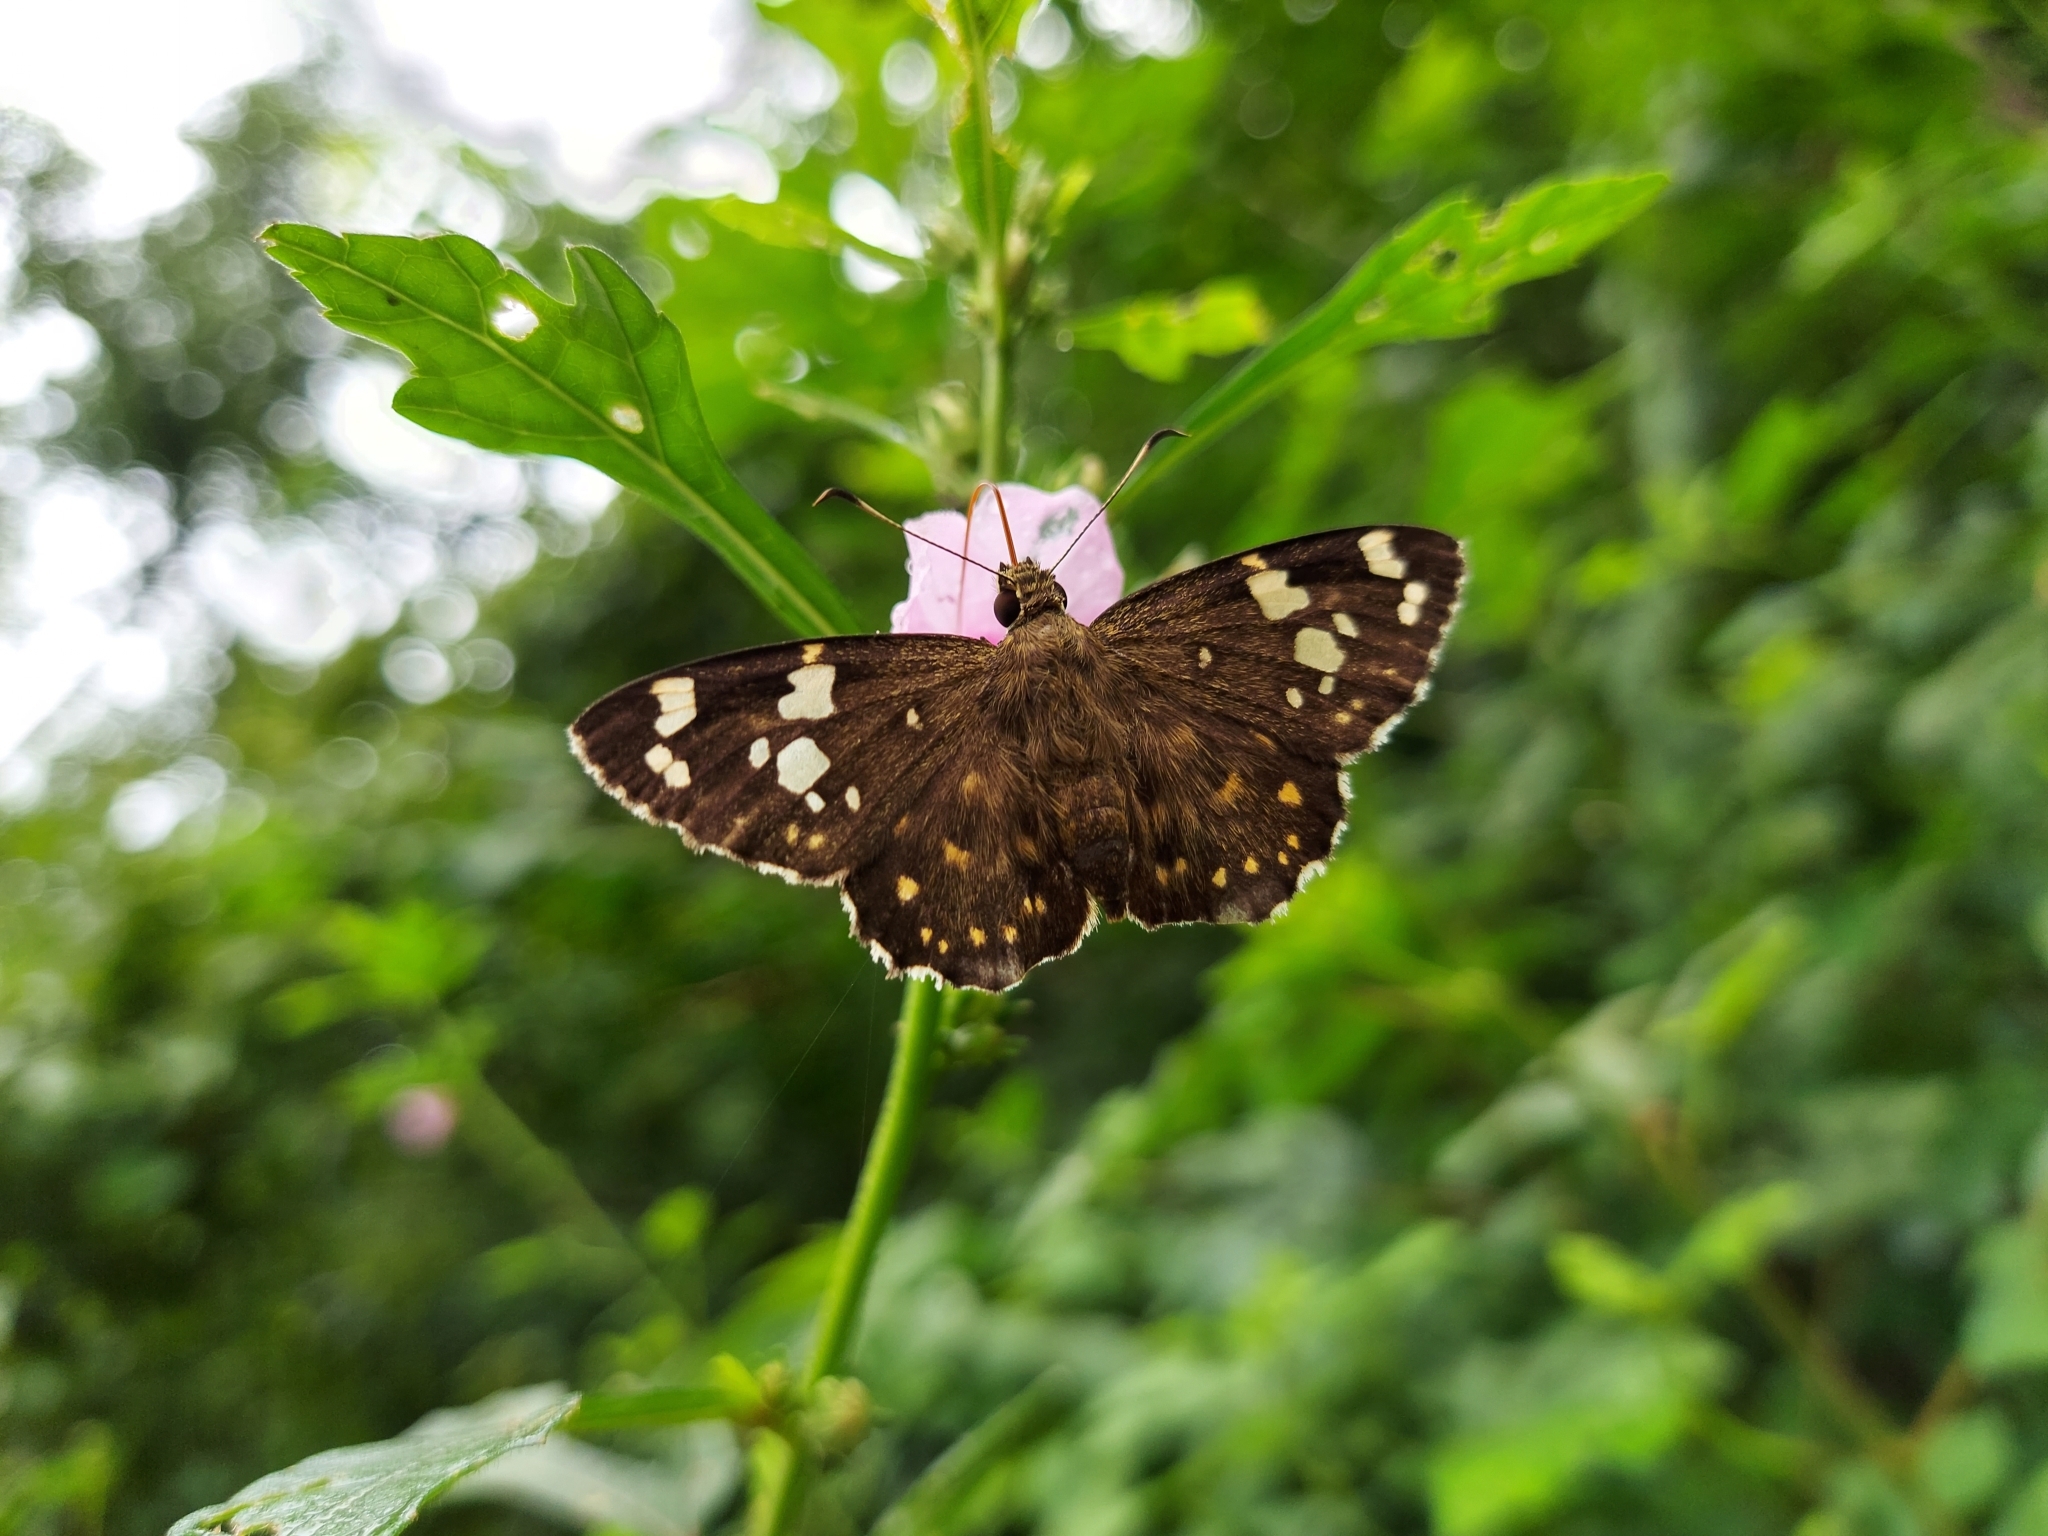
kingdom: Animalia
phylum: Arthropoda
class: Insecta
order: Lepidoptera
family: Hesperiidae
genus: Celaenorrhinus
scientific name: Celaenorrhinus ambareesa
